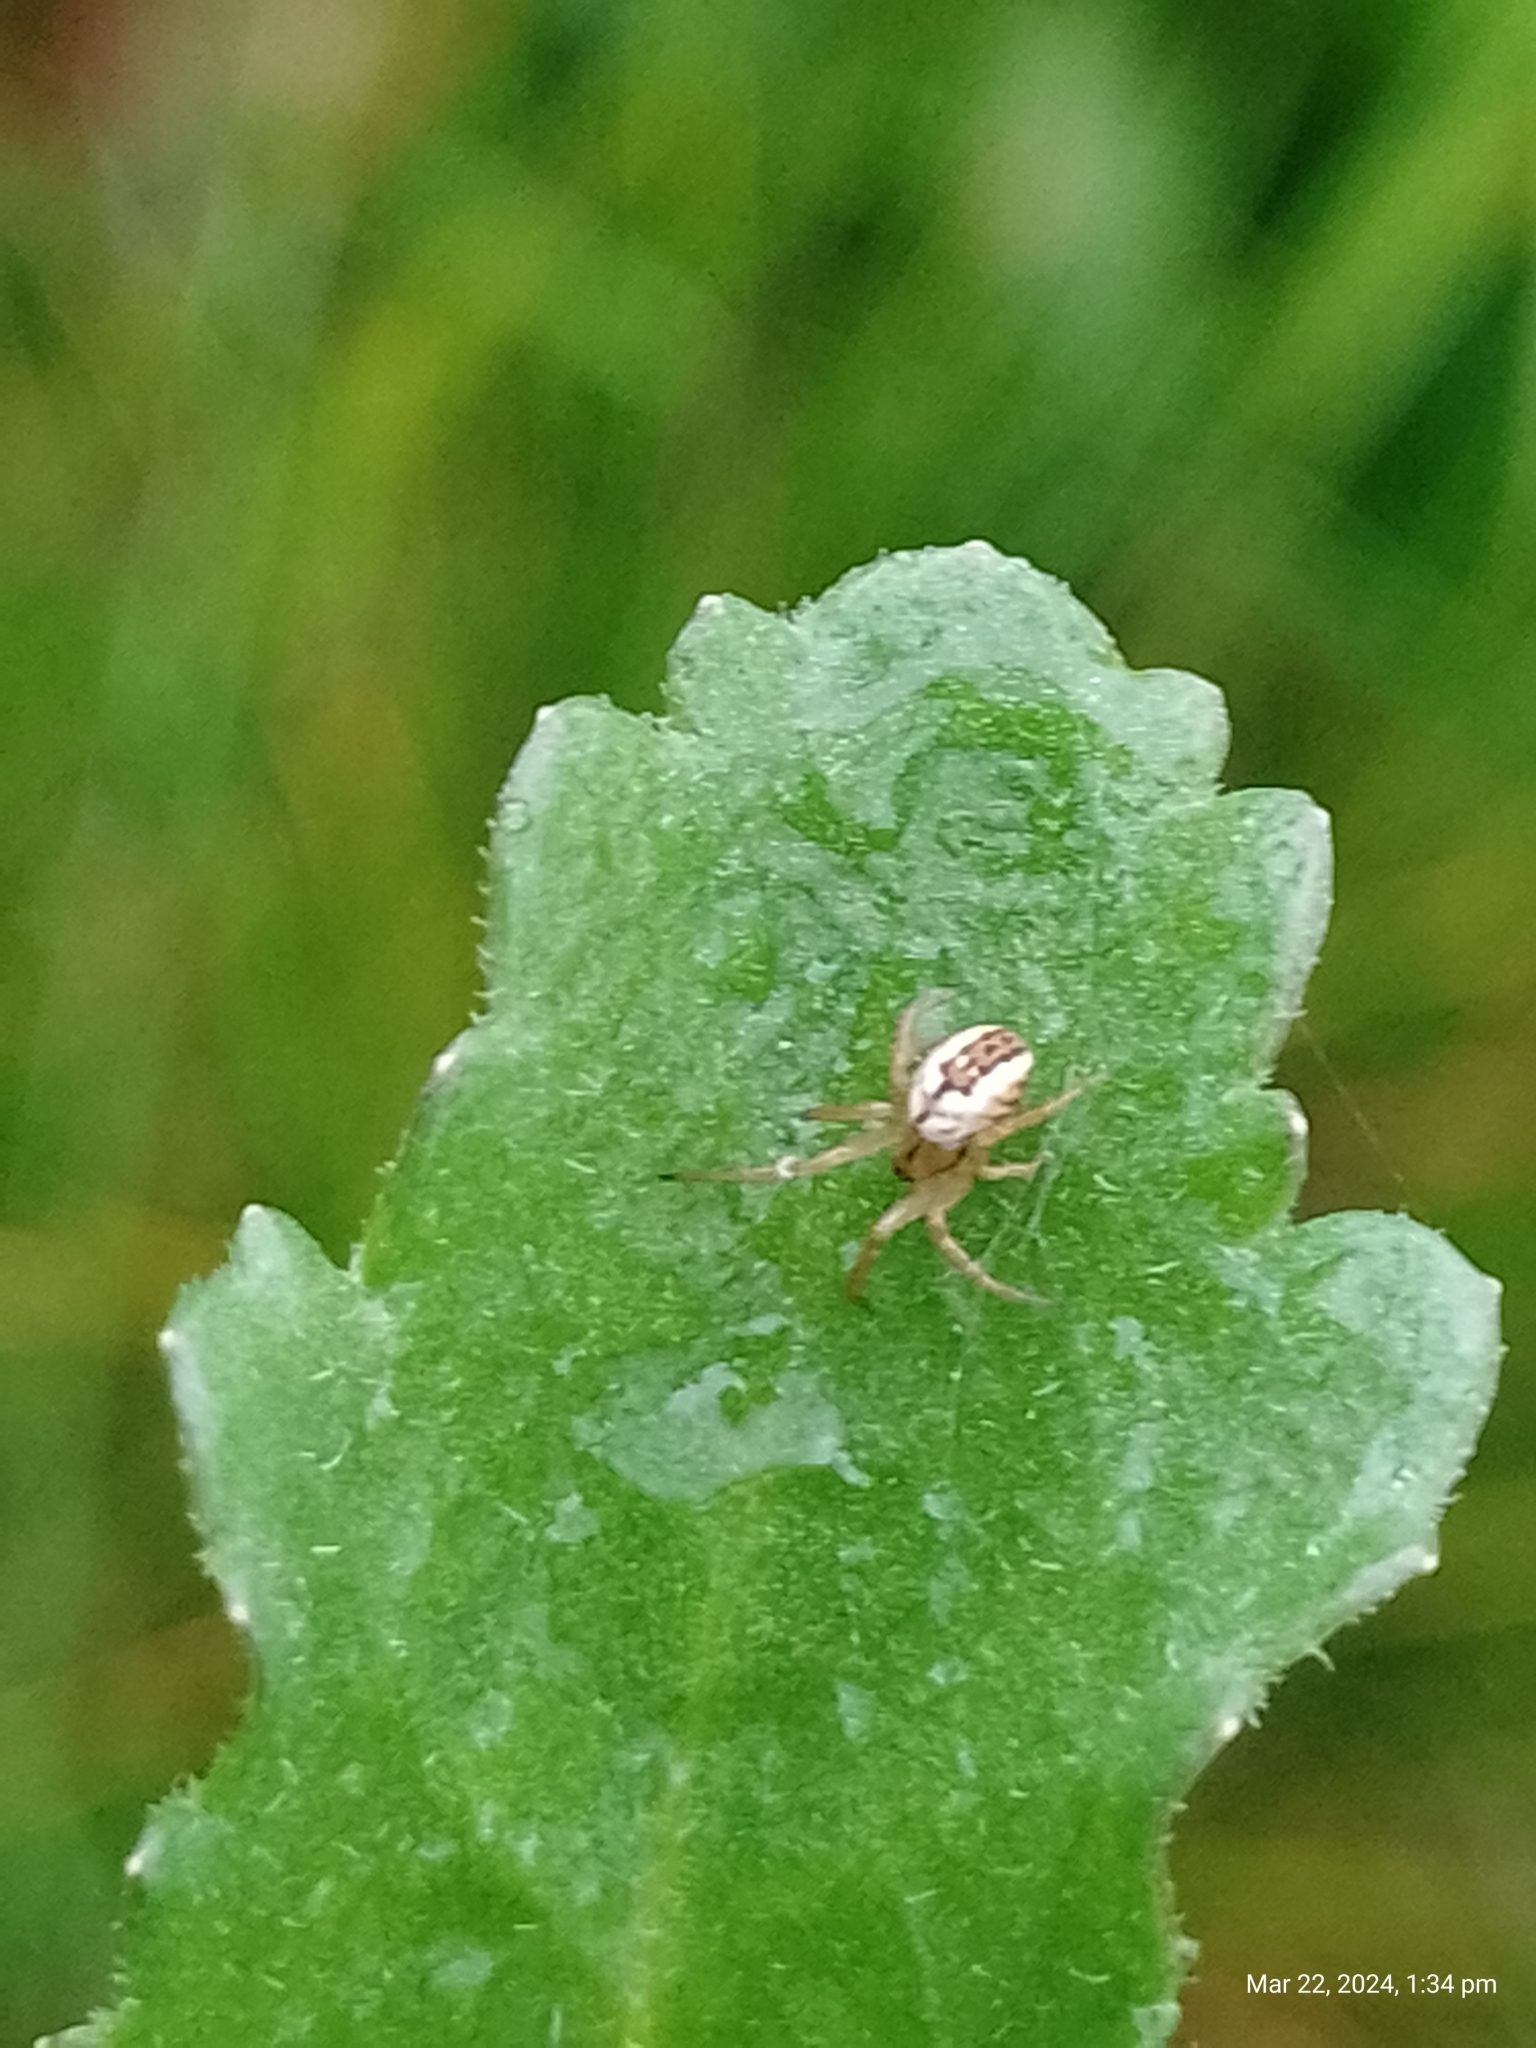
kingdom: Animalia
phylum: Arthropoda
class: Arachnida
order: Araneae
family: Araneidae
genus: Mangora
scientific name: Mangora acalypha
